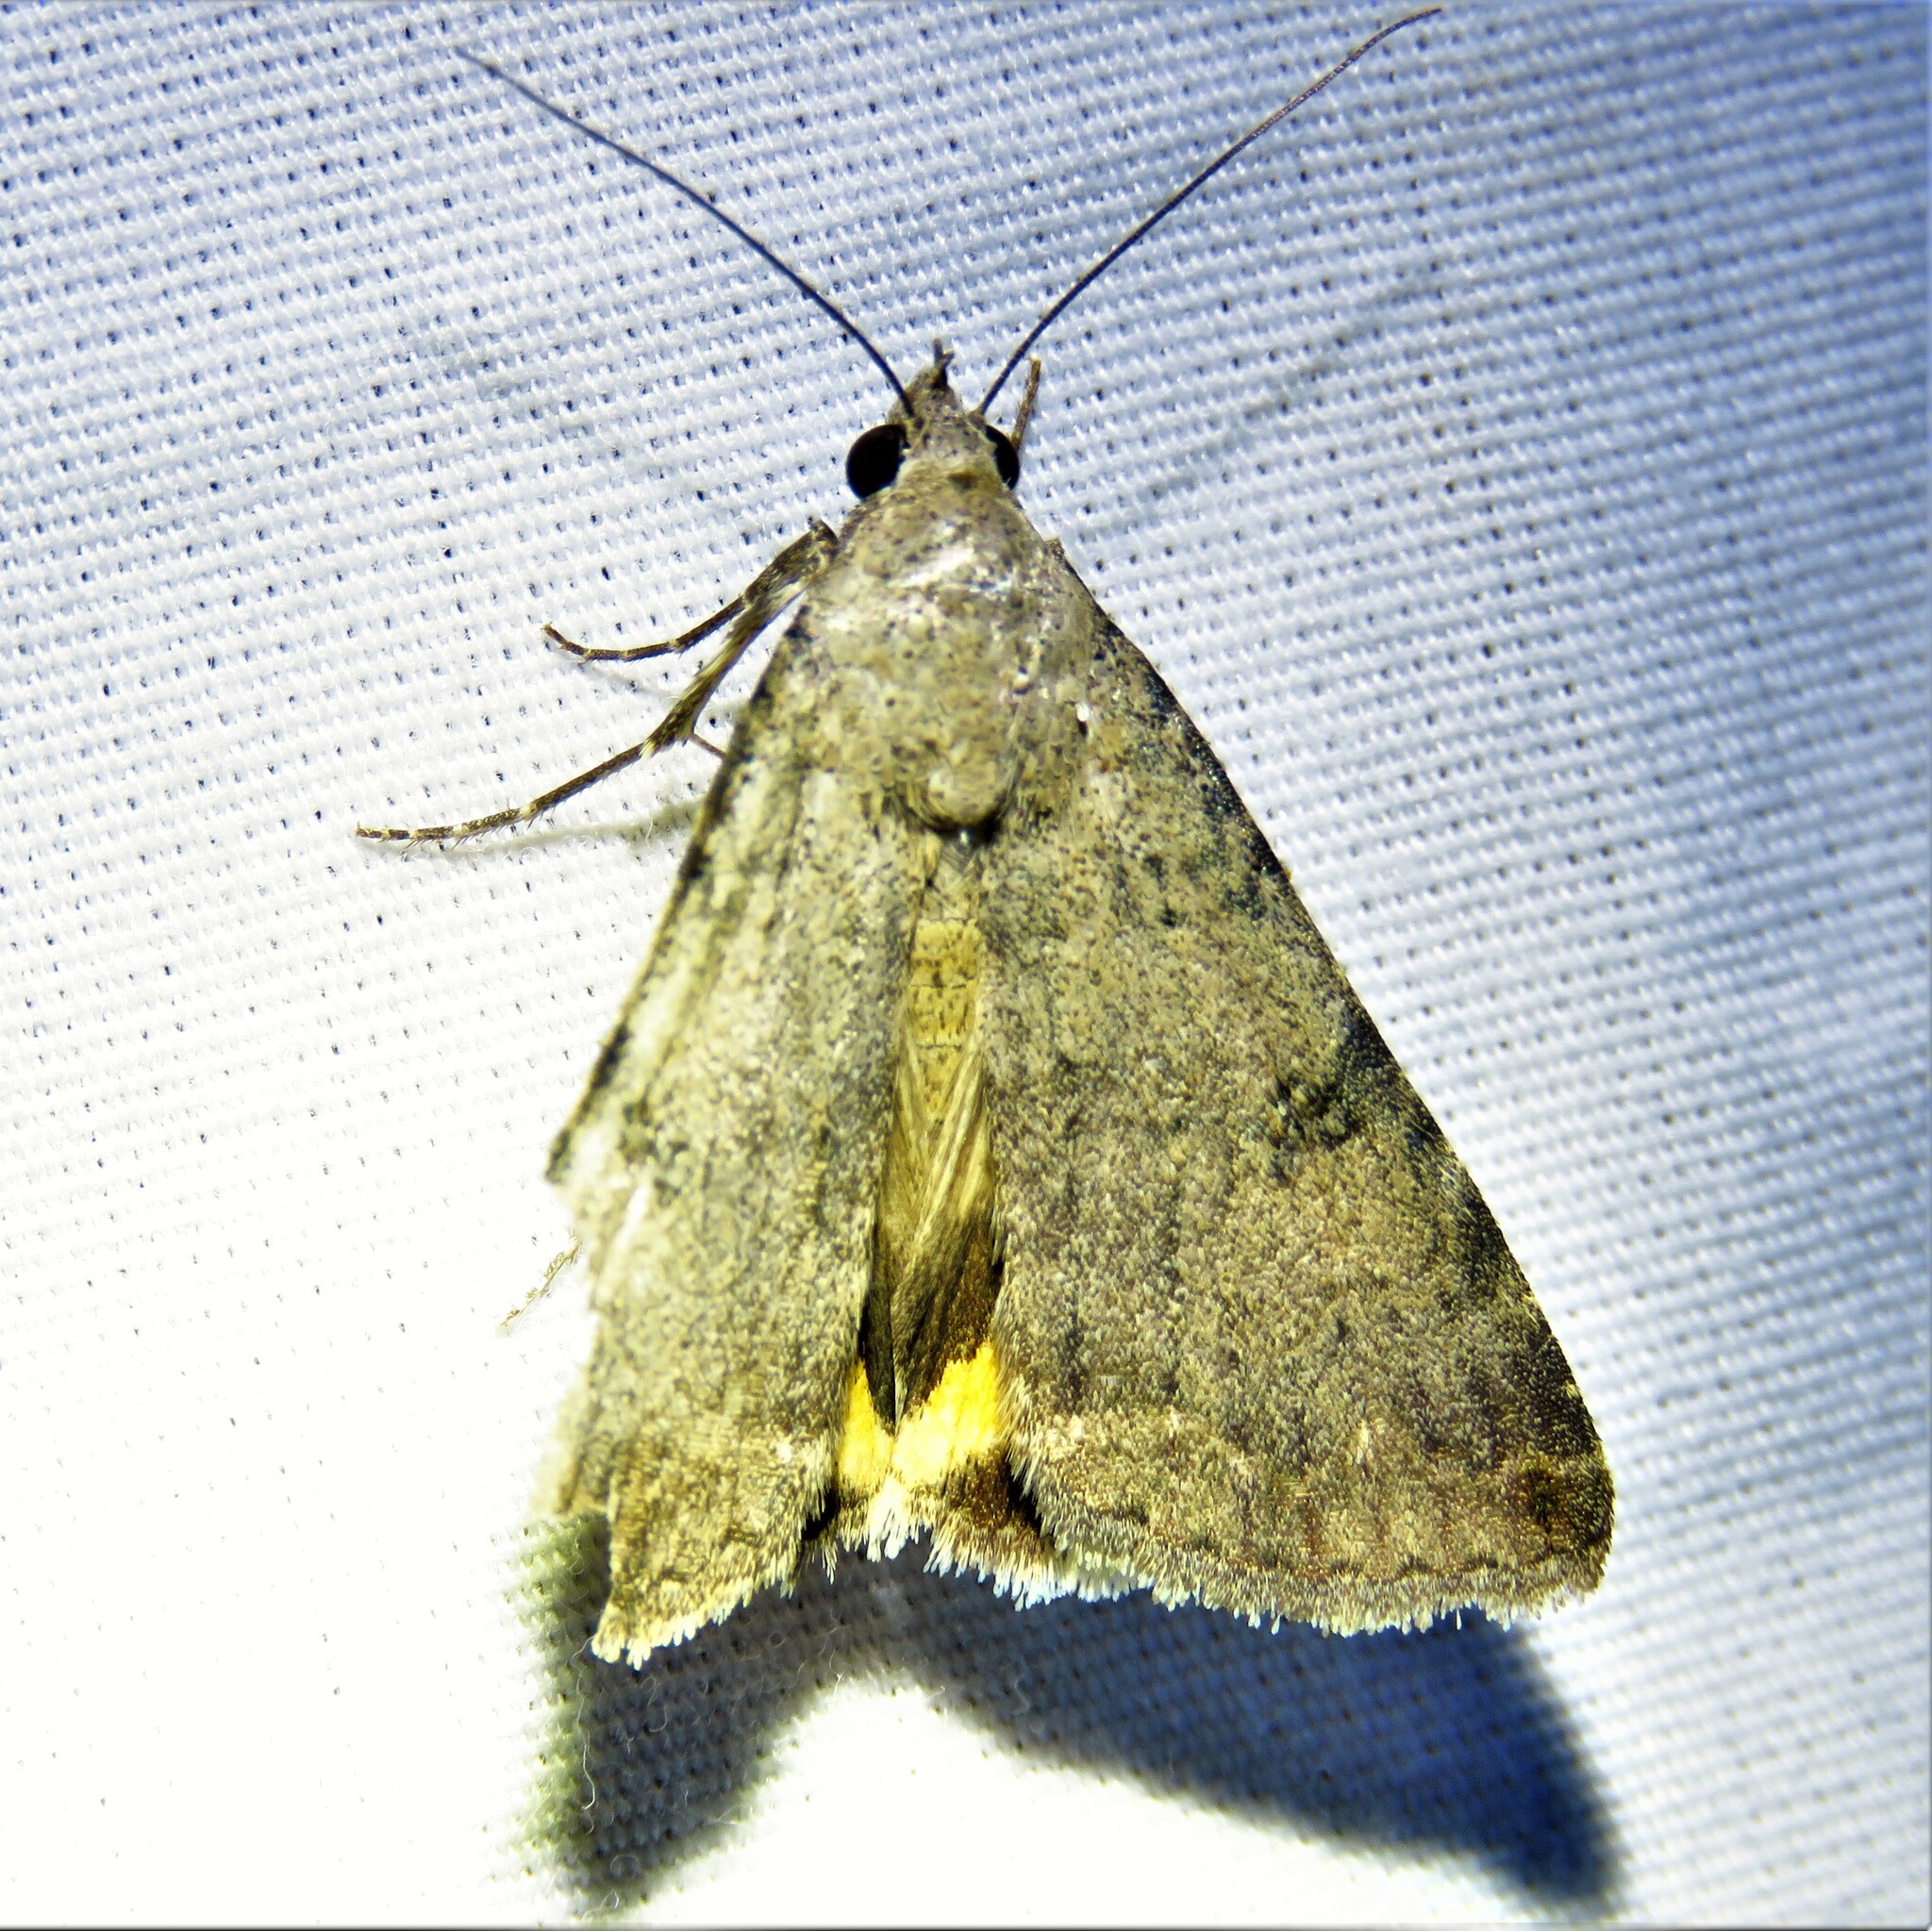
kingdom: Animalia
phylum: Arthropoda
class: Insecta
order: Lepidoptera
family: Erebidae
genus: Bulia
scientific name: Bulia deducta
